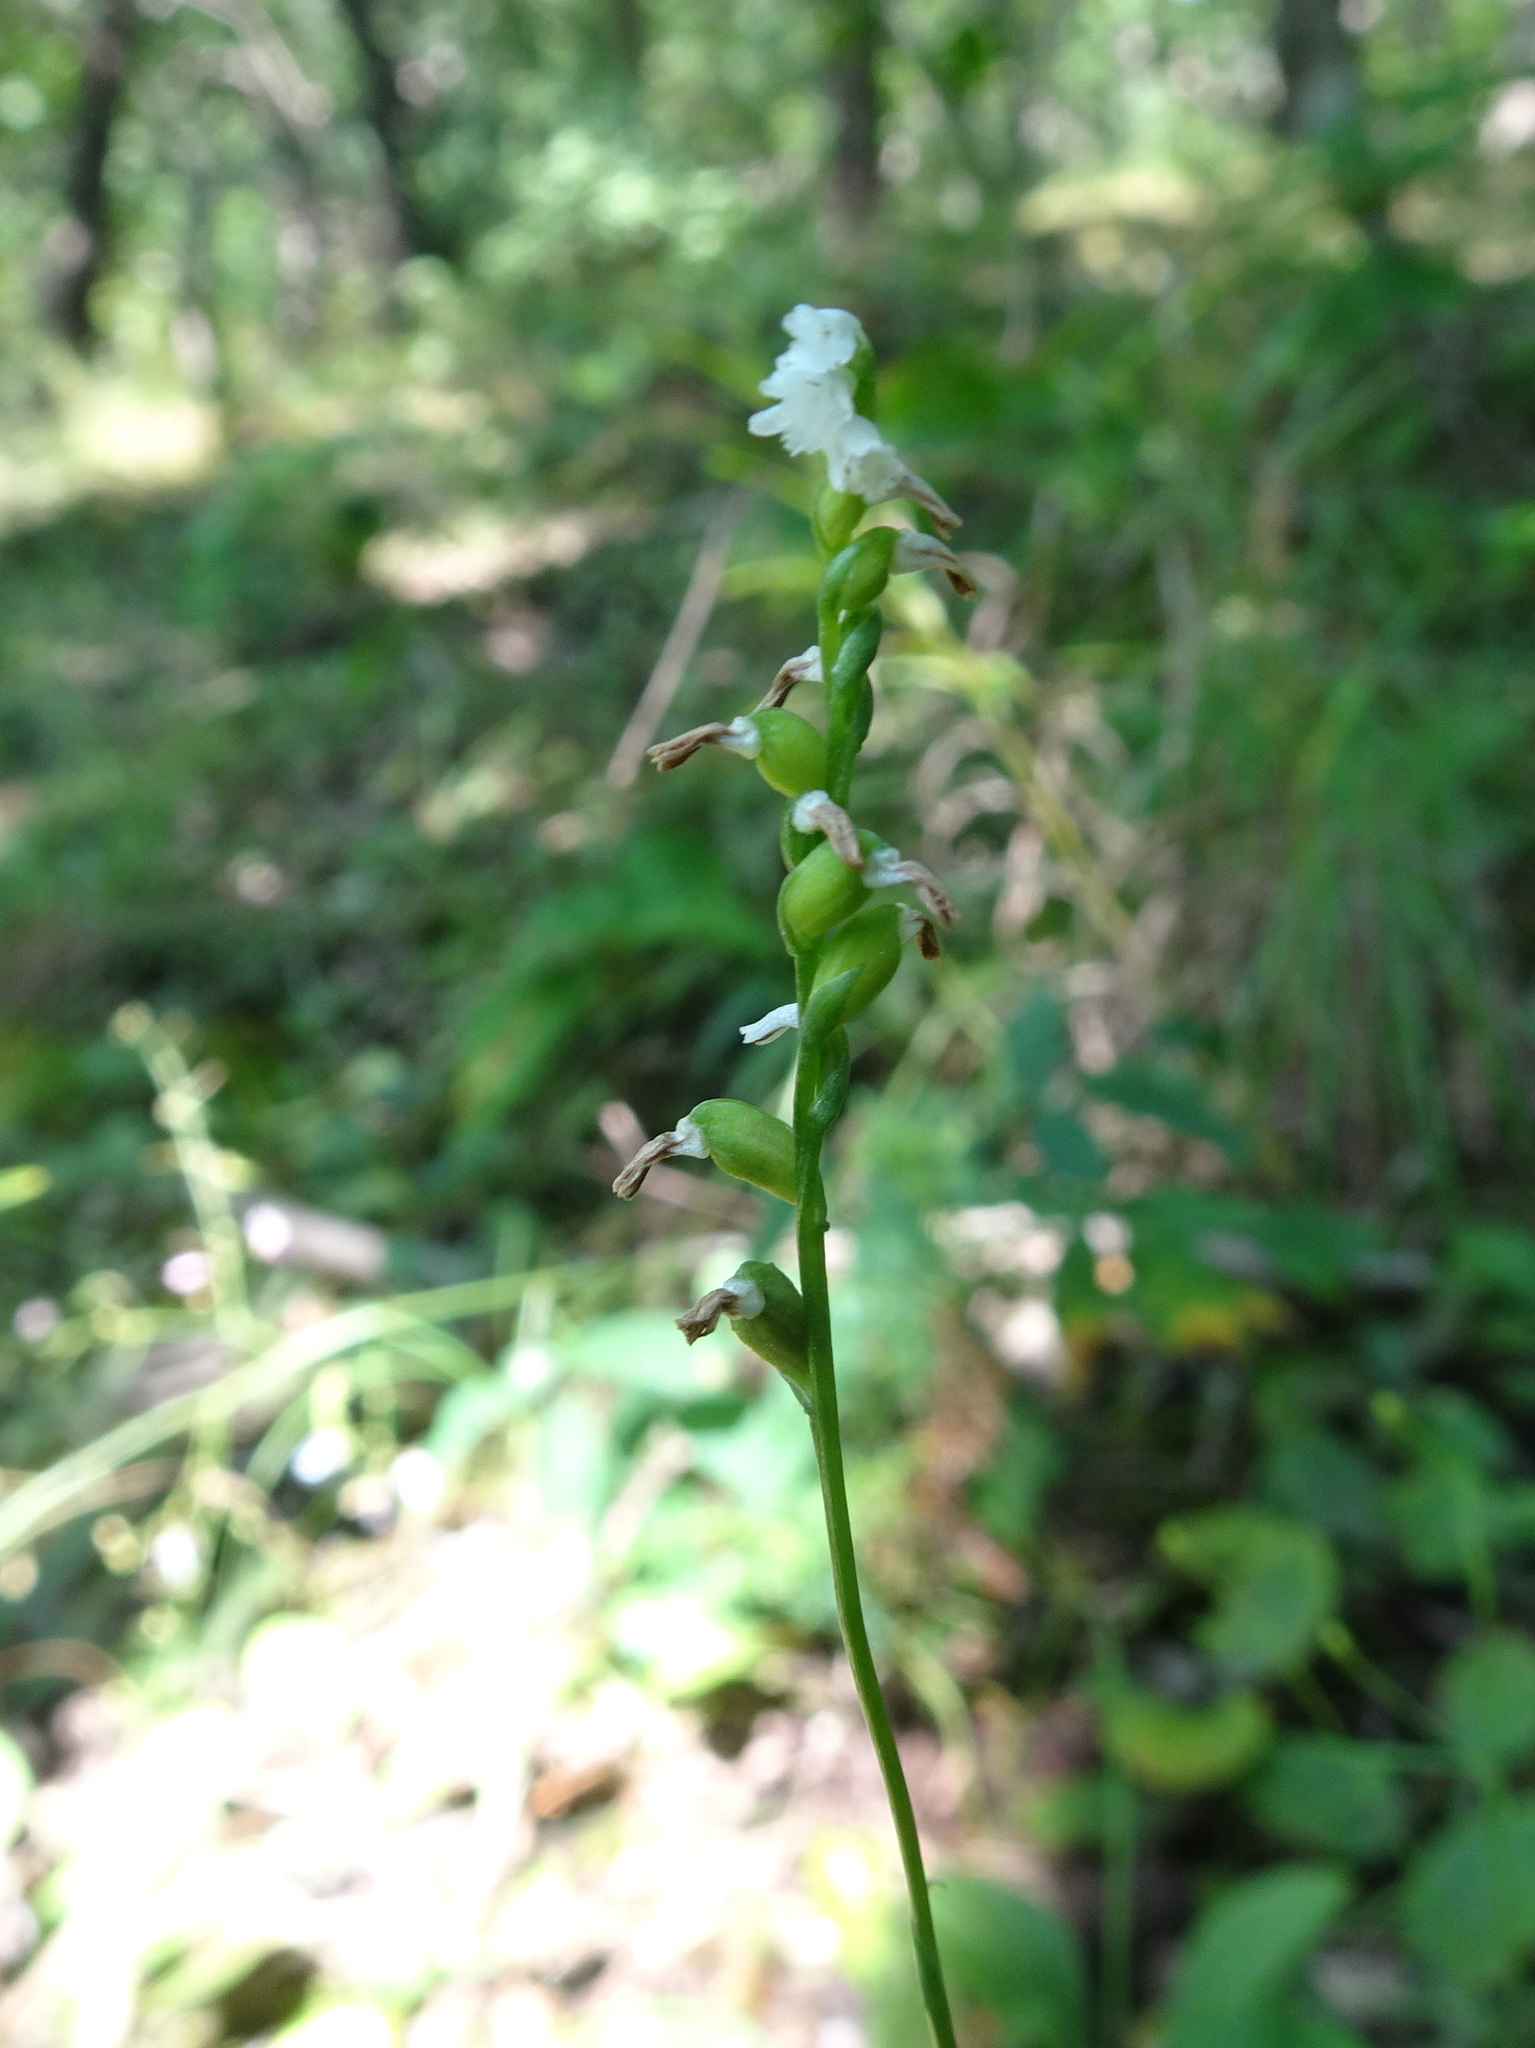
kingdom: Plantae
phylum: Tracheophyta
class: Liliopsida
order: Asparagales
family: Orchidaceae
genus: Spiranthes
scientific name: Spiranthes tuberosa
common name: Little ladies'-tresses
